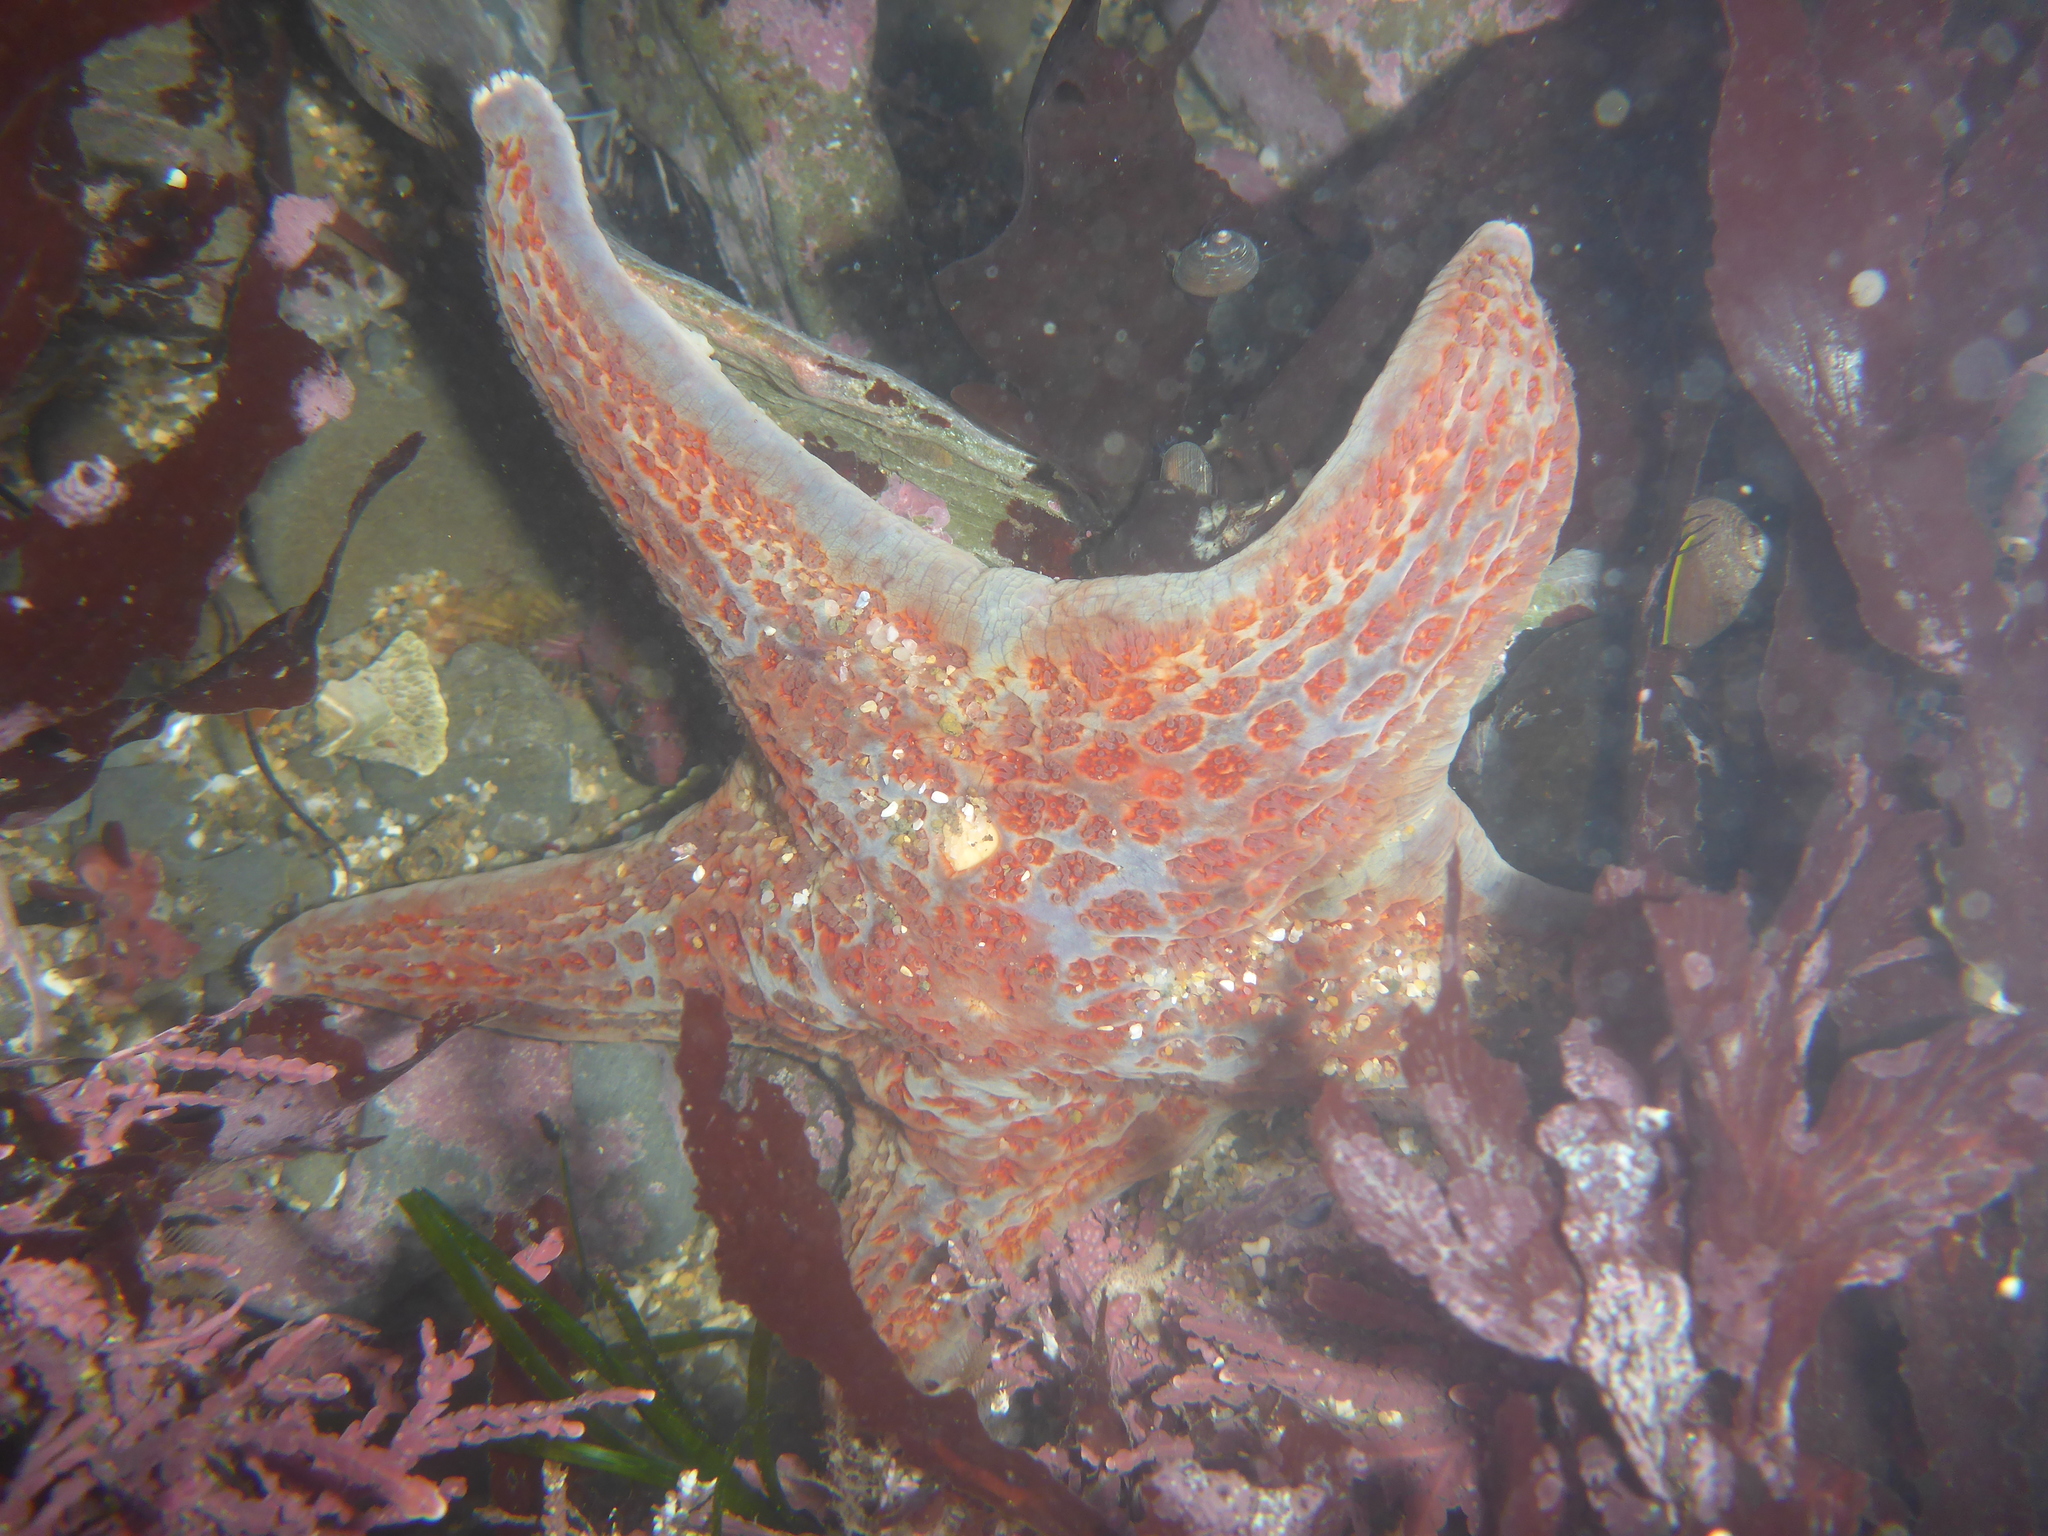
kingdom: Animalia
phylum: Echinodermata
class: Asteroidea
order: Valvatida
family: Asteropseidae
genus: Dermasterias
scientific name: Dermasterias imbricata
